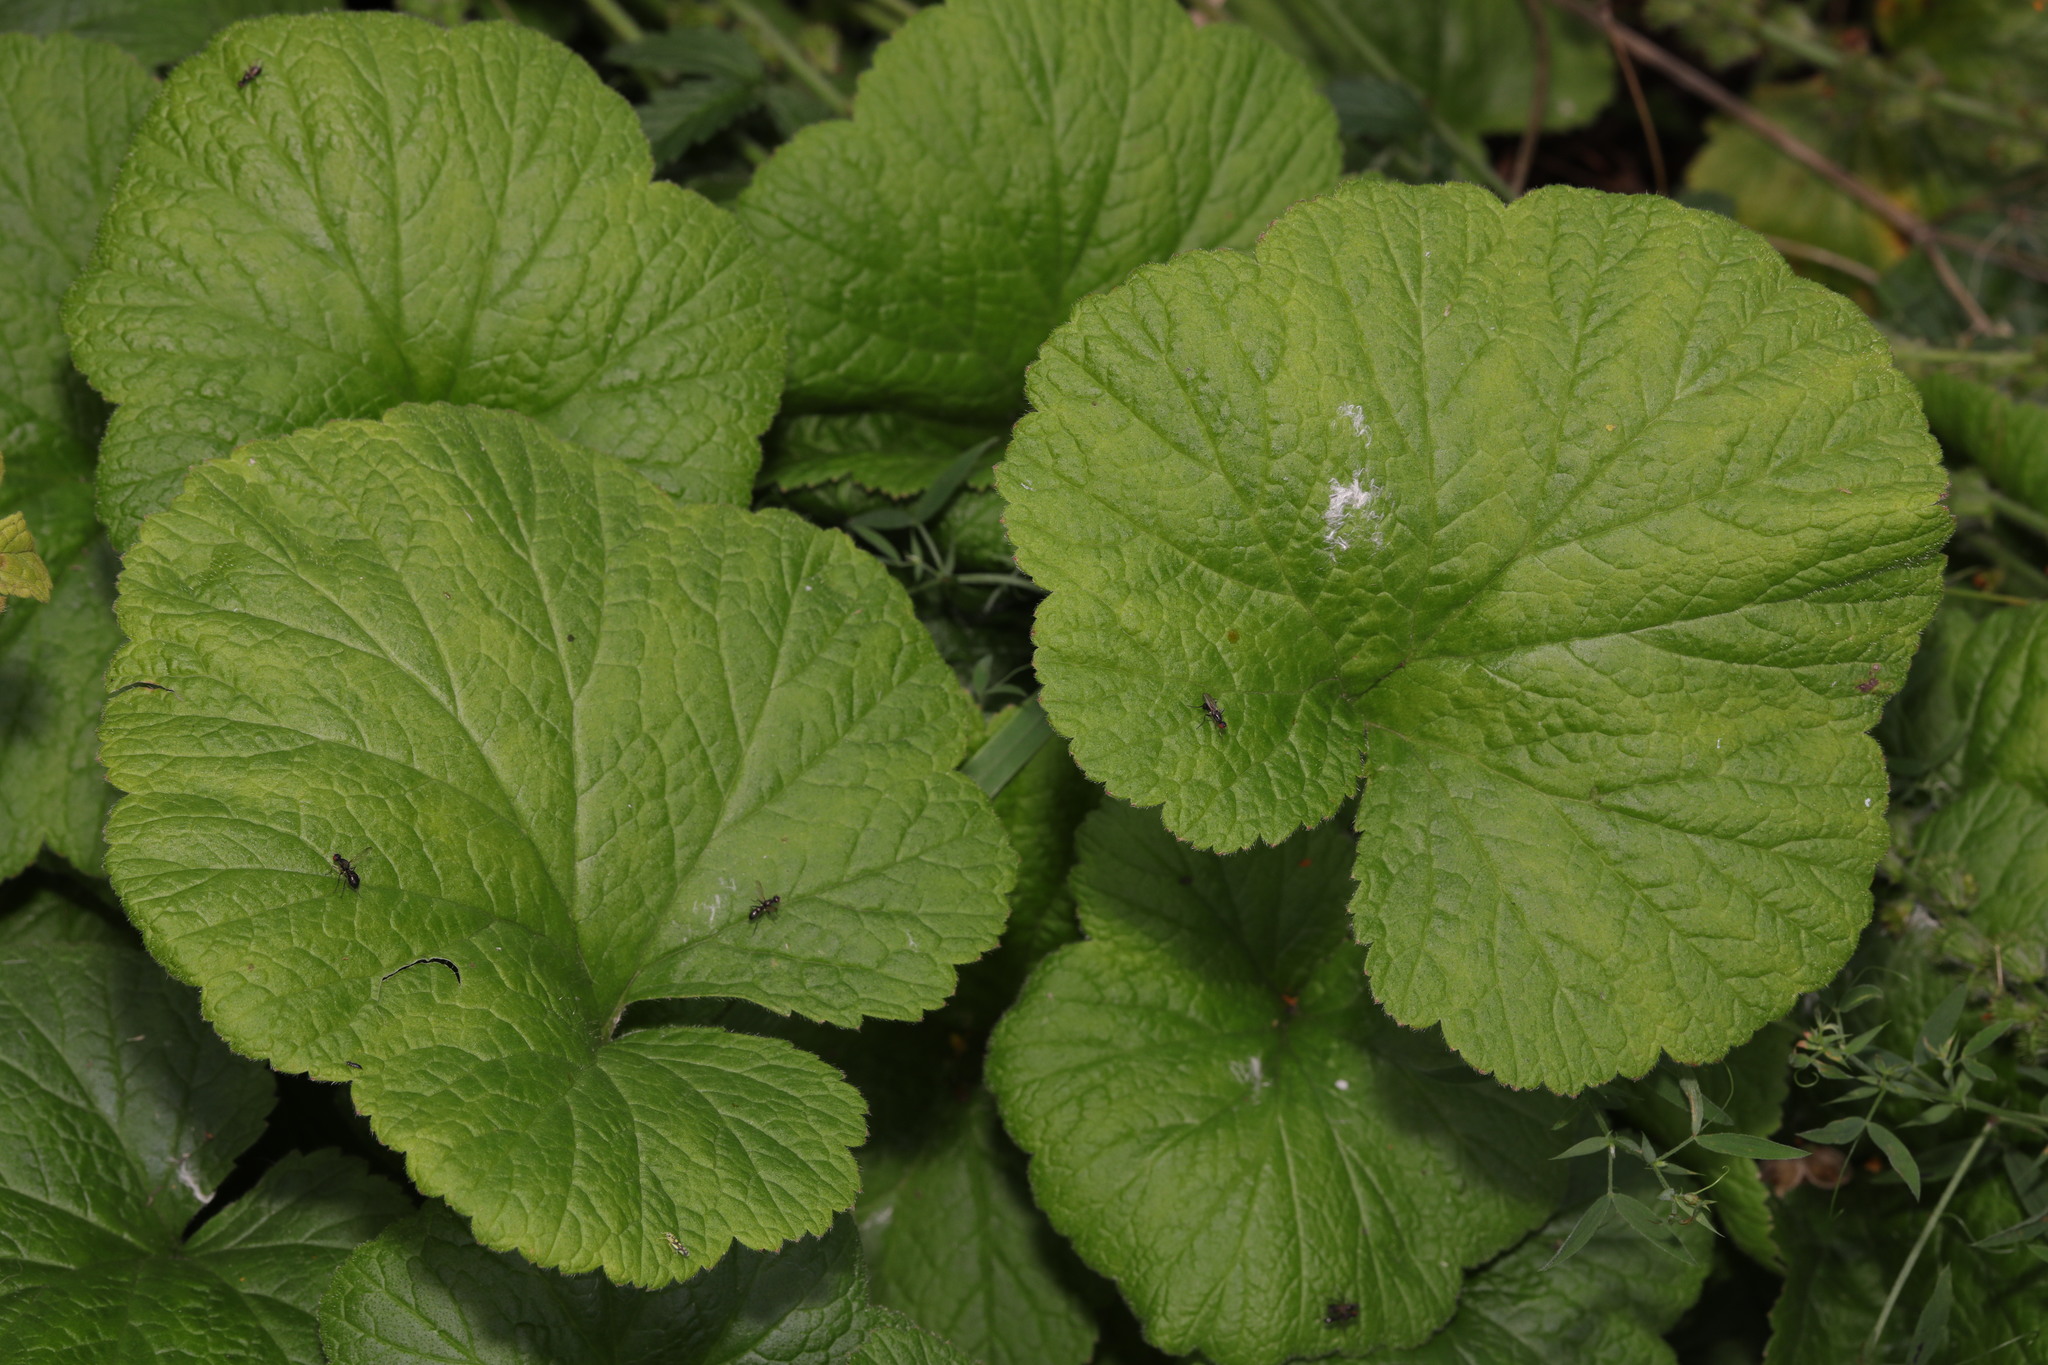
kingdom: Plantae
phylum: Tracheophyta
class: Magnoliopsida
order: Rosales
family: Rosaceae
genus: Geum
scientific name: Geum rivale
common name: Water avens
